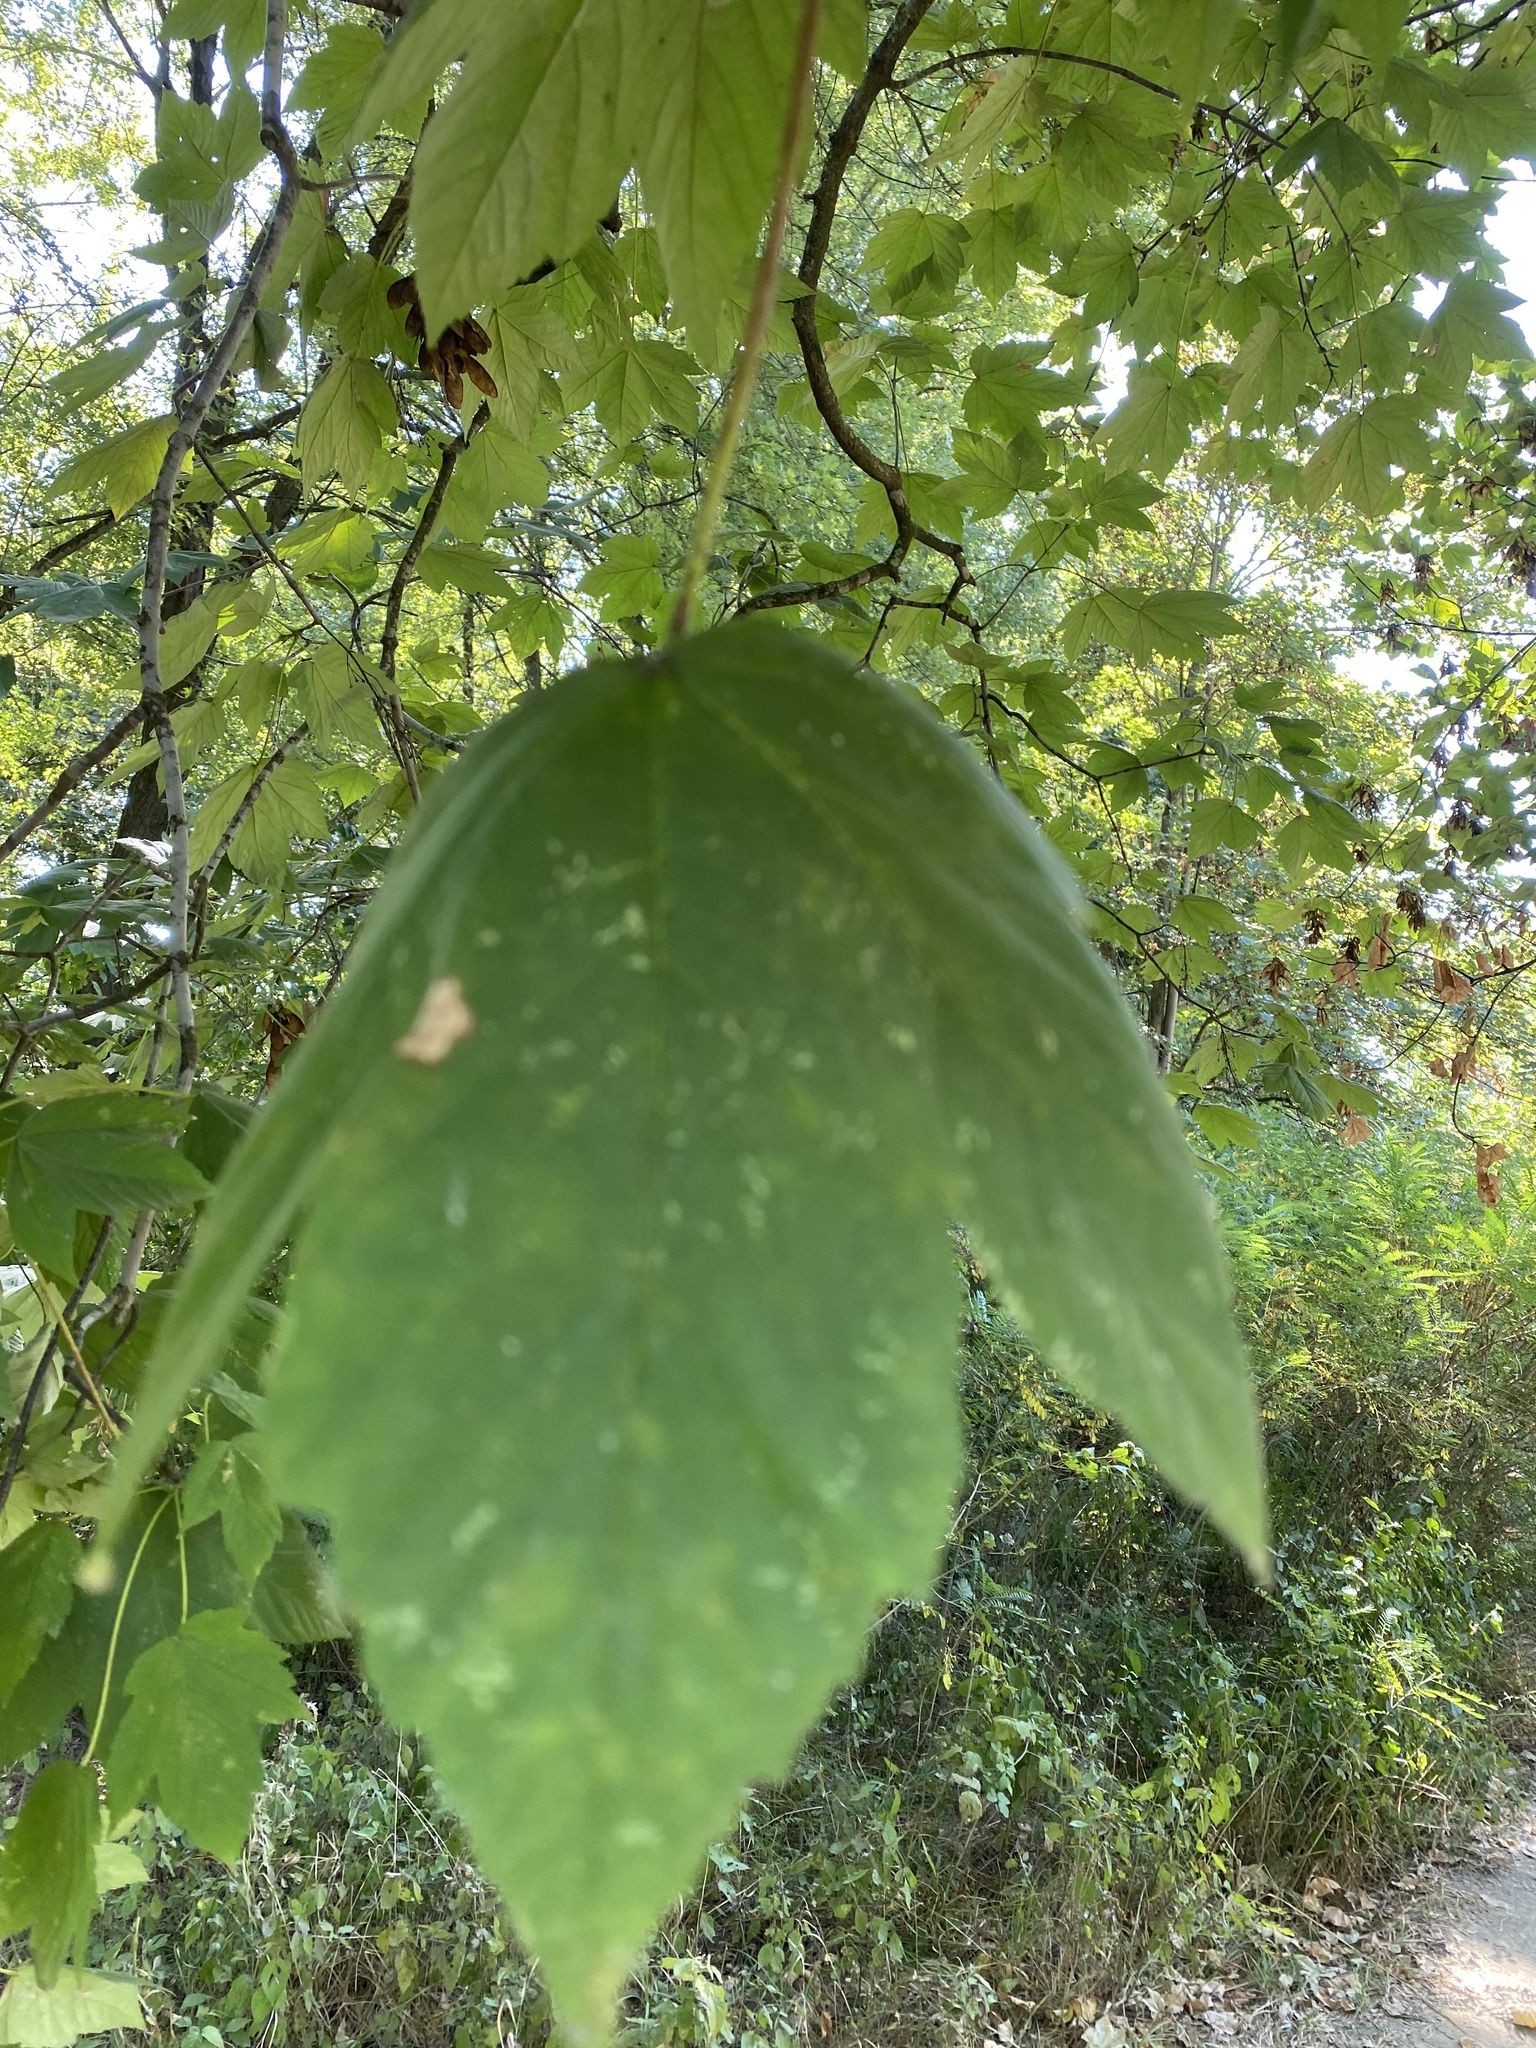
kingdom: Plantae
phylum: Tracheophyta
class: Magnoliopsida
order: Sapindales
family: Sapindaceae
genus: Acer
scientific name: Acer pseudoplatanus
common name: Sycamore
